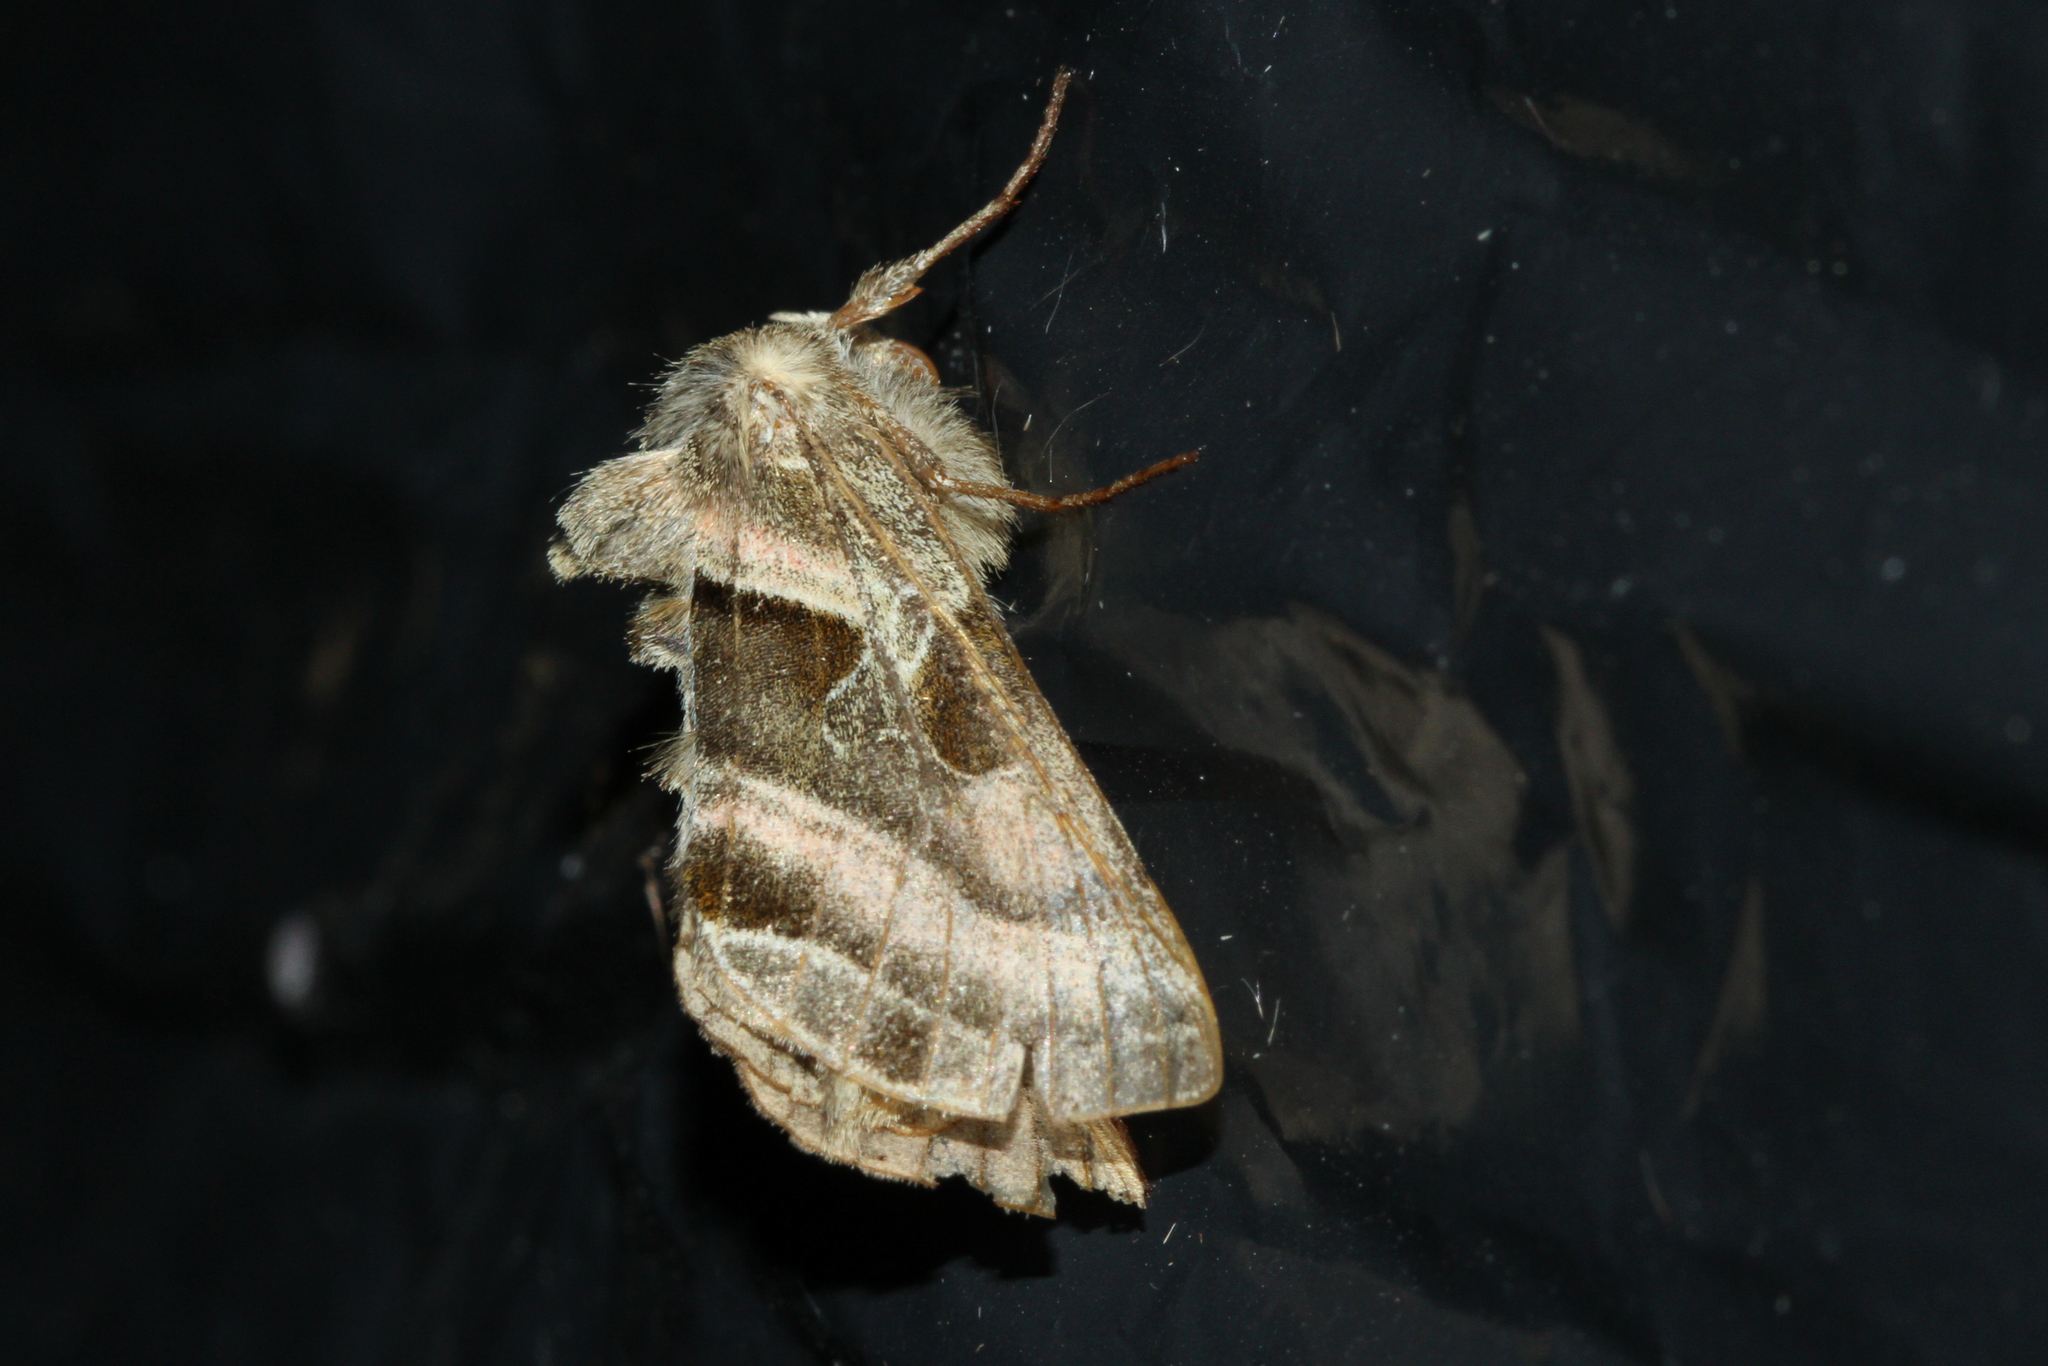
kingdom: Animalia
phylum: Arthropoda
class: Insecta
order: Lepidoptera
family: Noctuidae
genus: Euchalcia
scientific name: Euchalcia variabilis
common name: Purple-shaded gem
